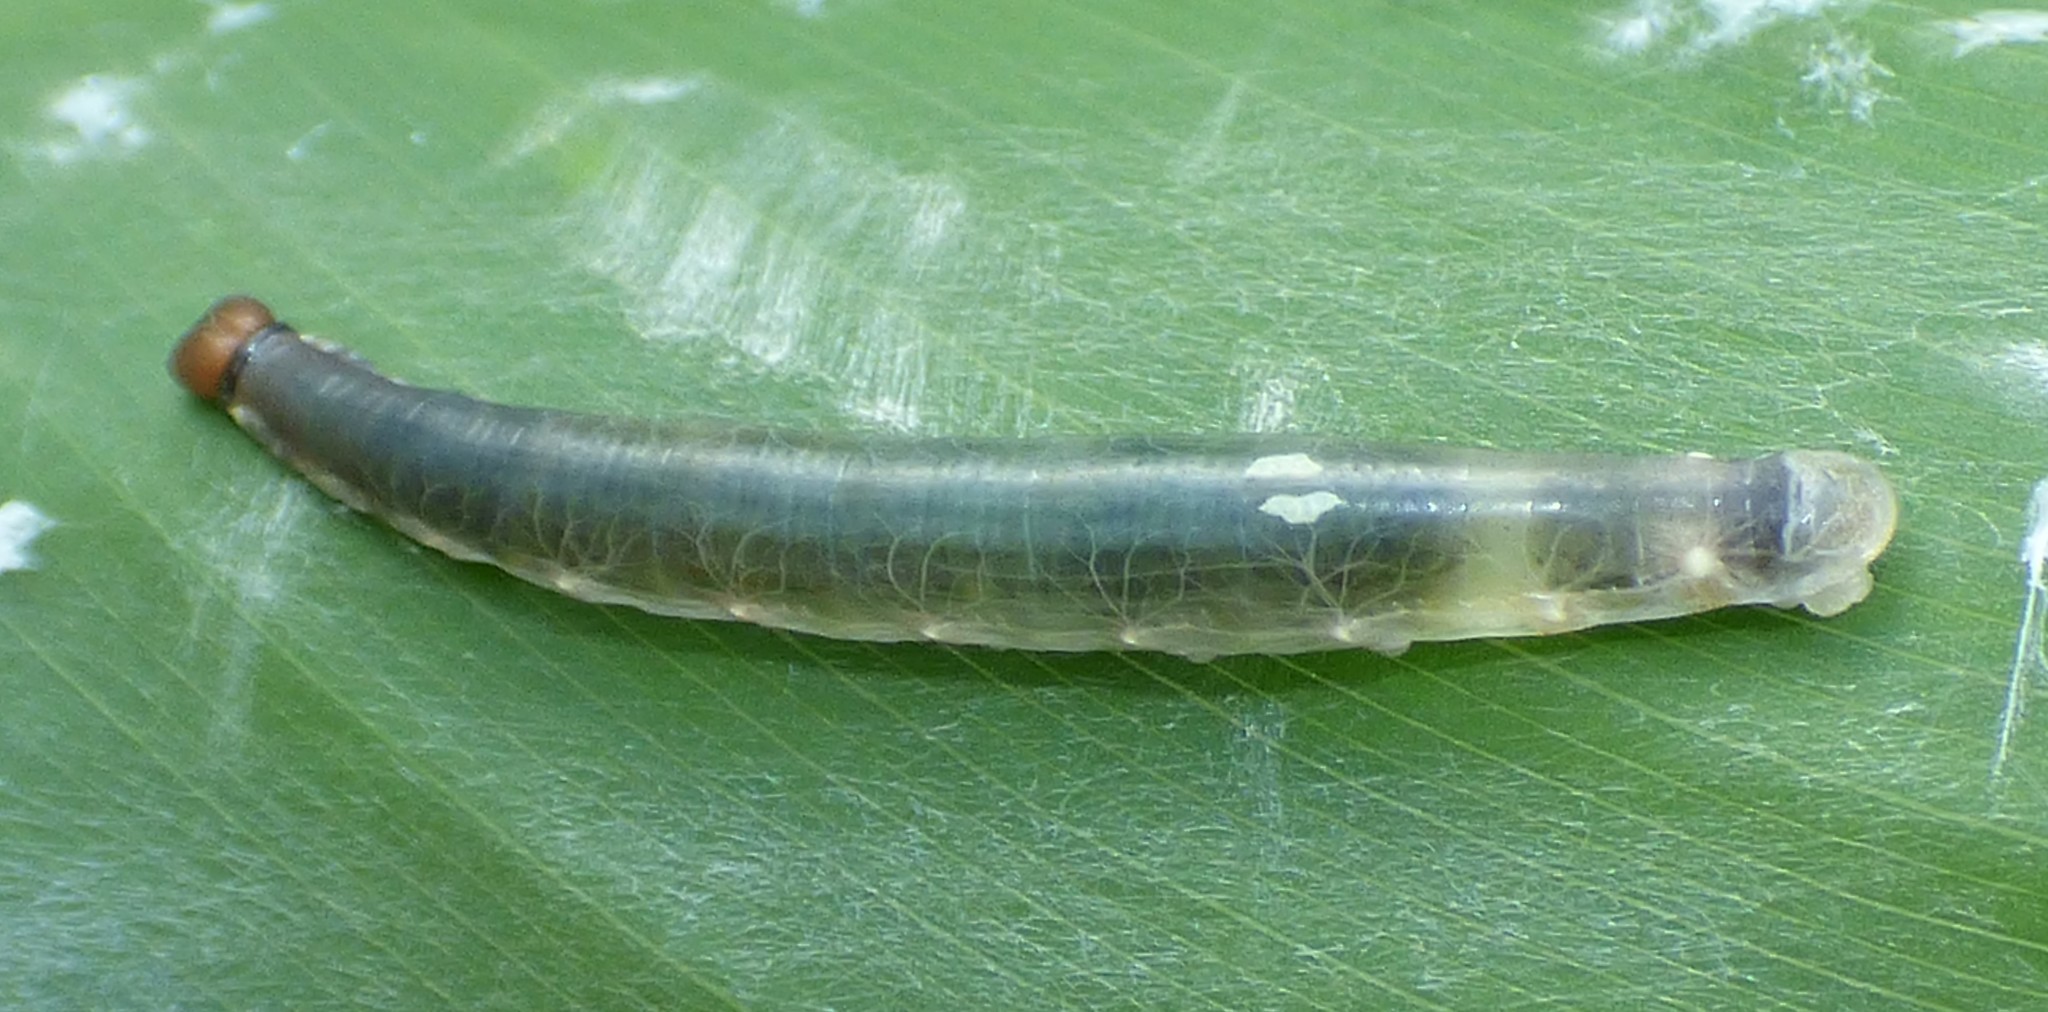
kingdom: Animalia
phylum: Arthropoda
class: Insecta
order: Lepidoptera
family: Hesperiidae
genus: Calpodes
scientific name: Calpodes ethlius
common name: Brazilian skipper
